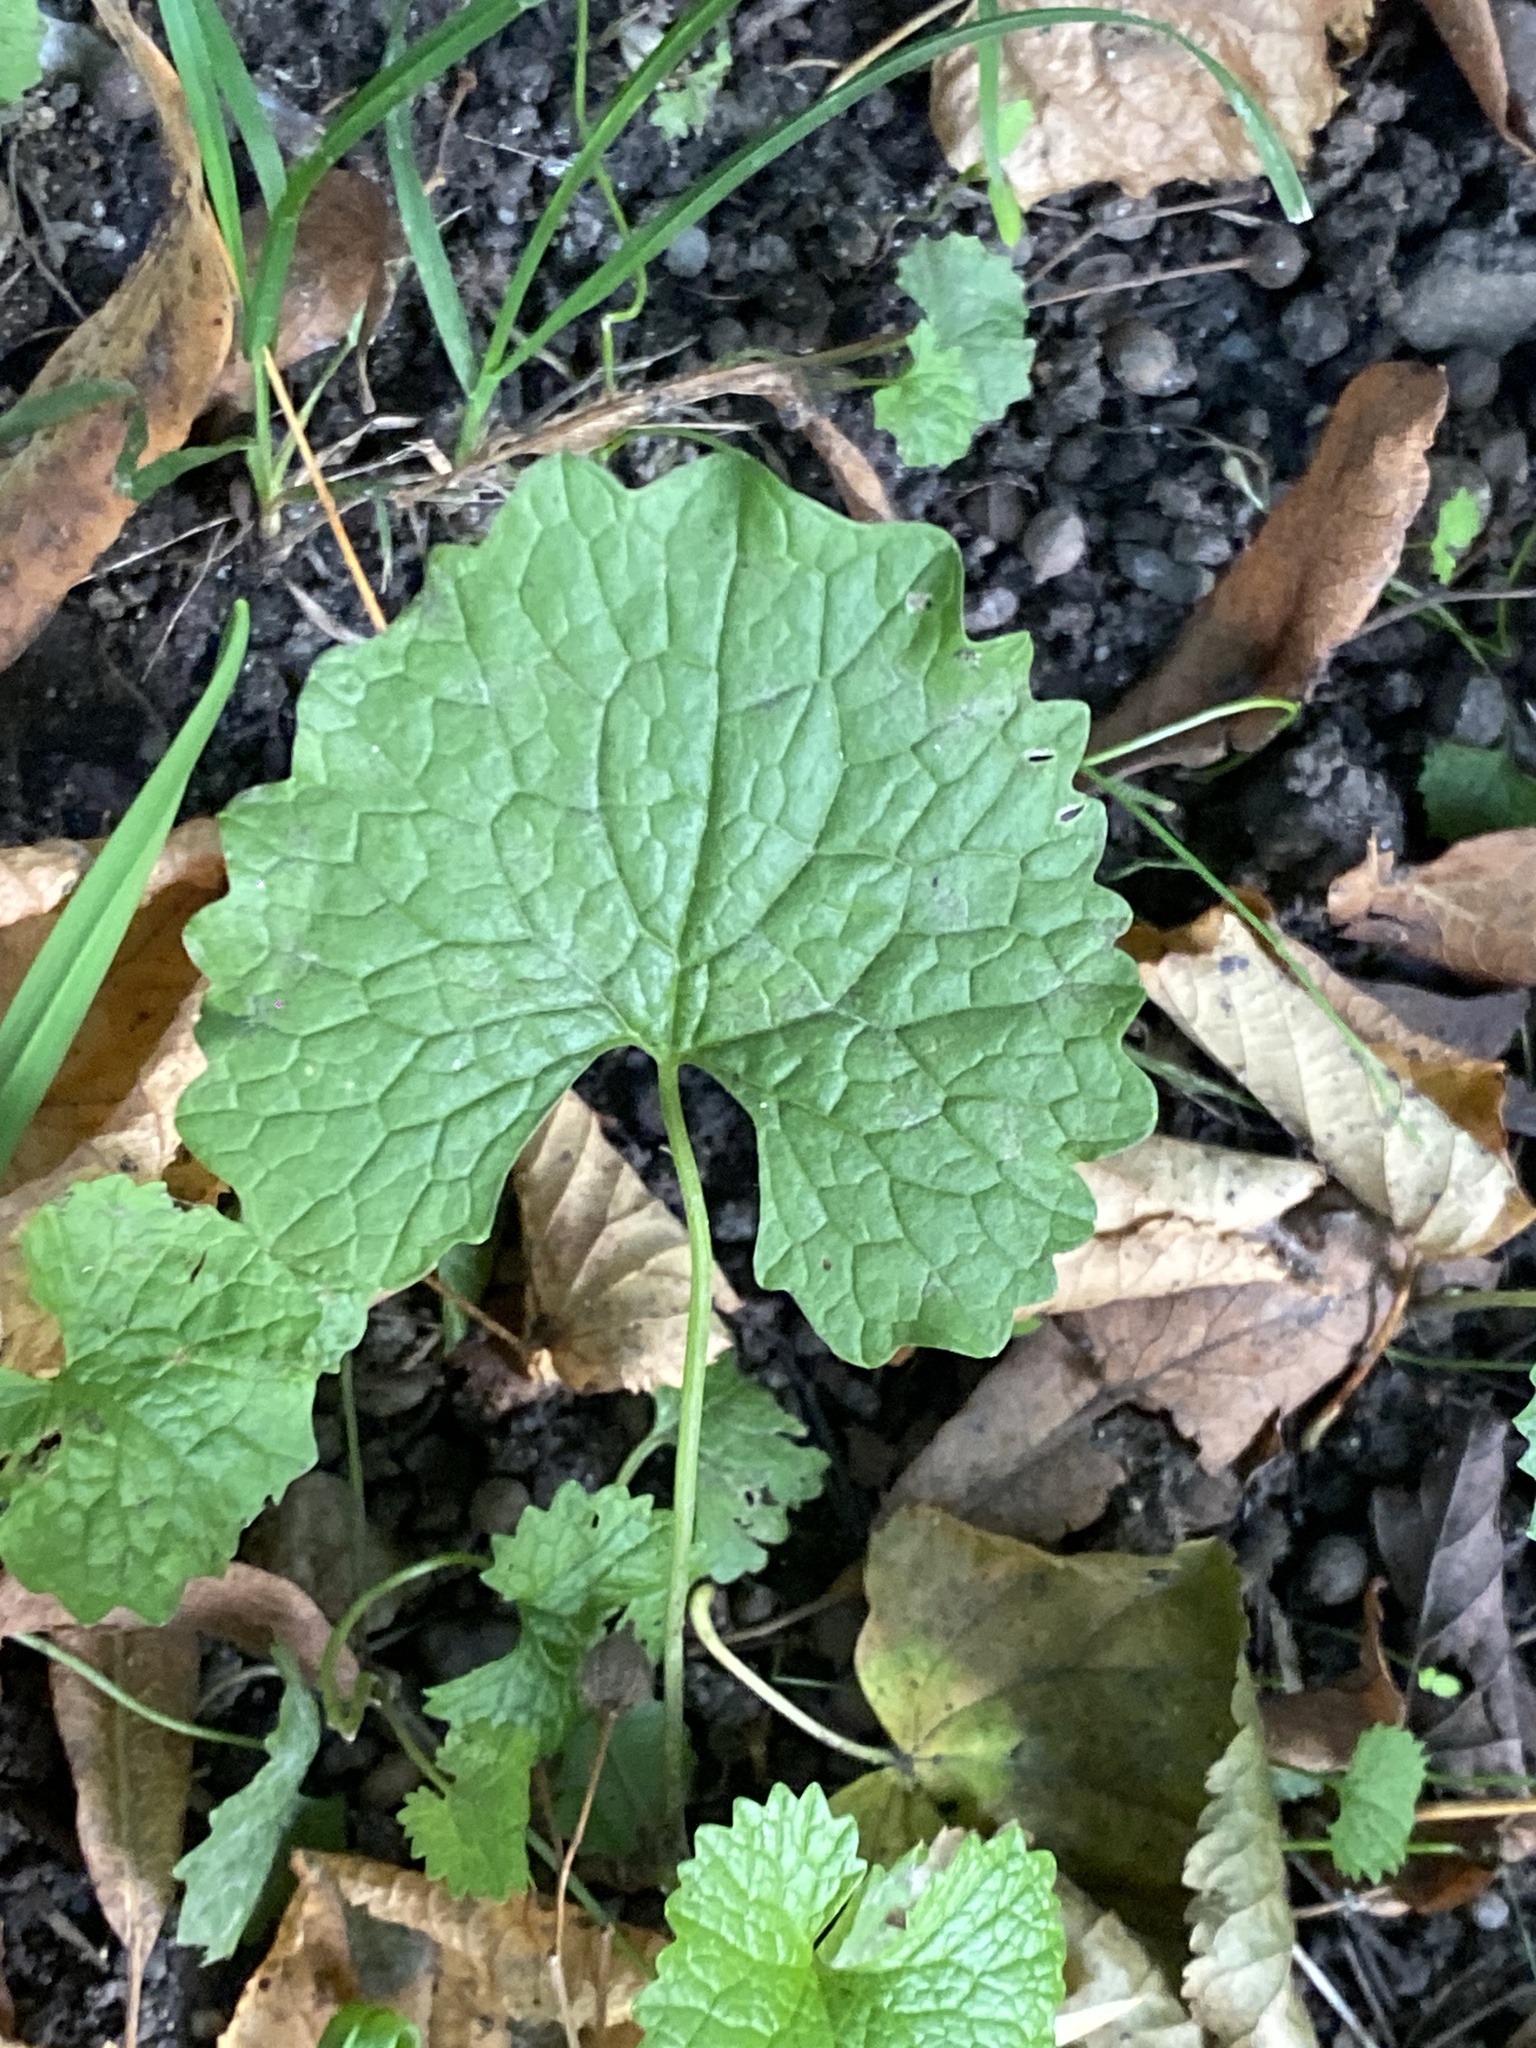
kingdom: Plantae
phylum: Tracheophyta
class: Magnoliopsida
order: Brassicales
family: Brassicaceae
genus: Alliaria
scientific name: Alliaria petiolata
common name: Garlic mustard
